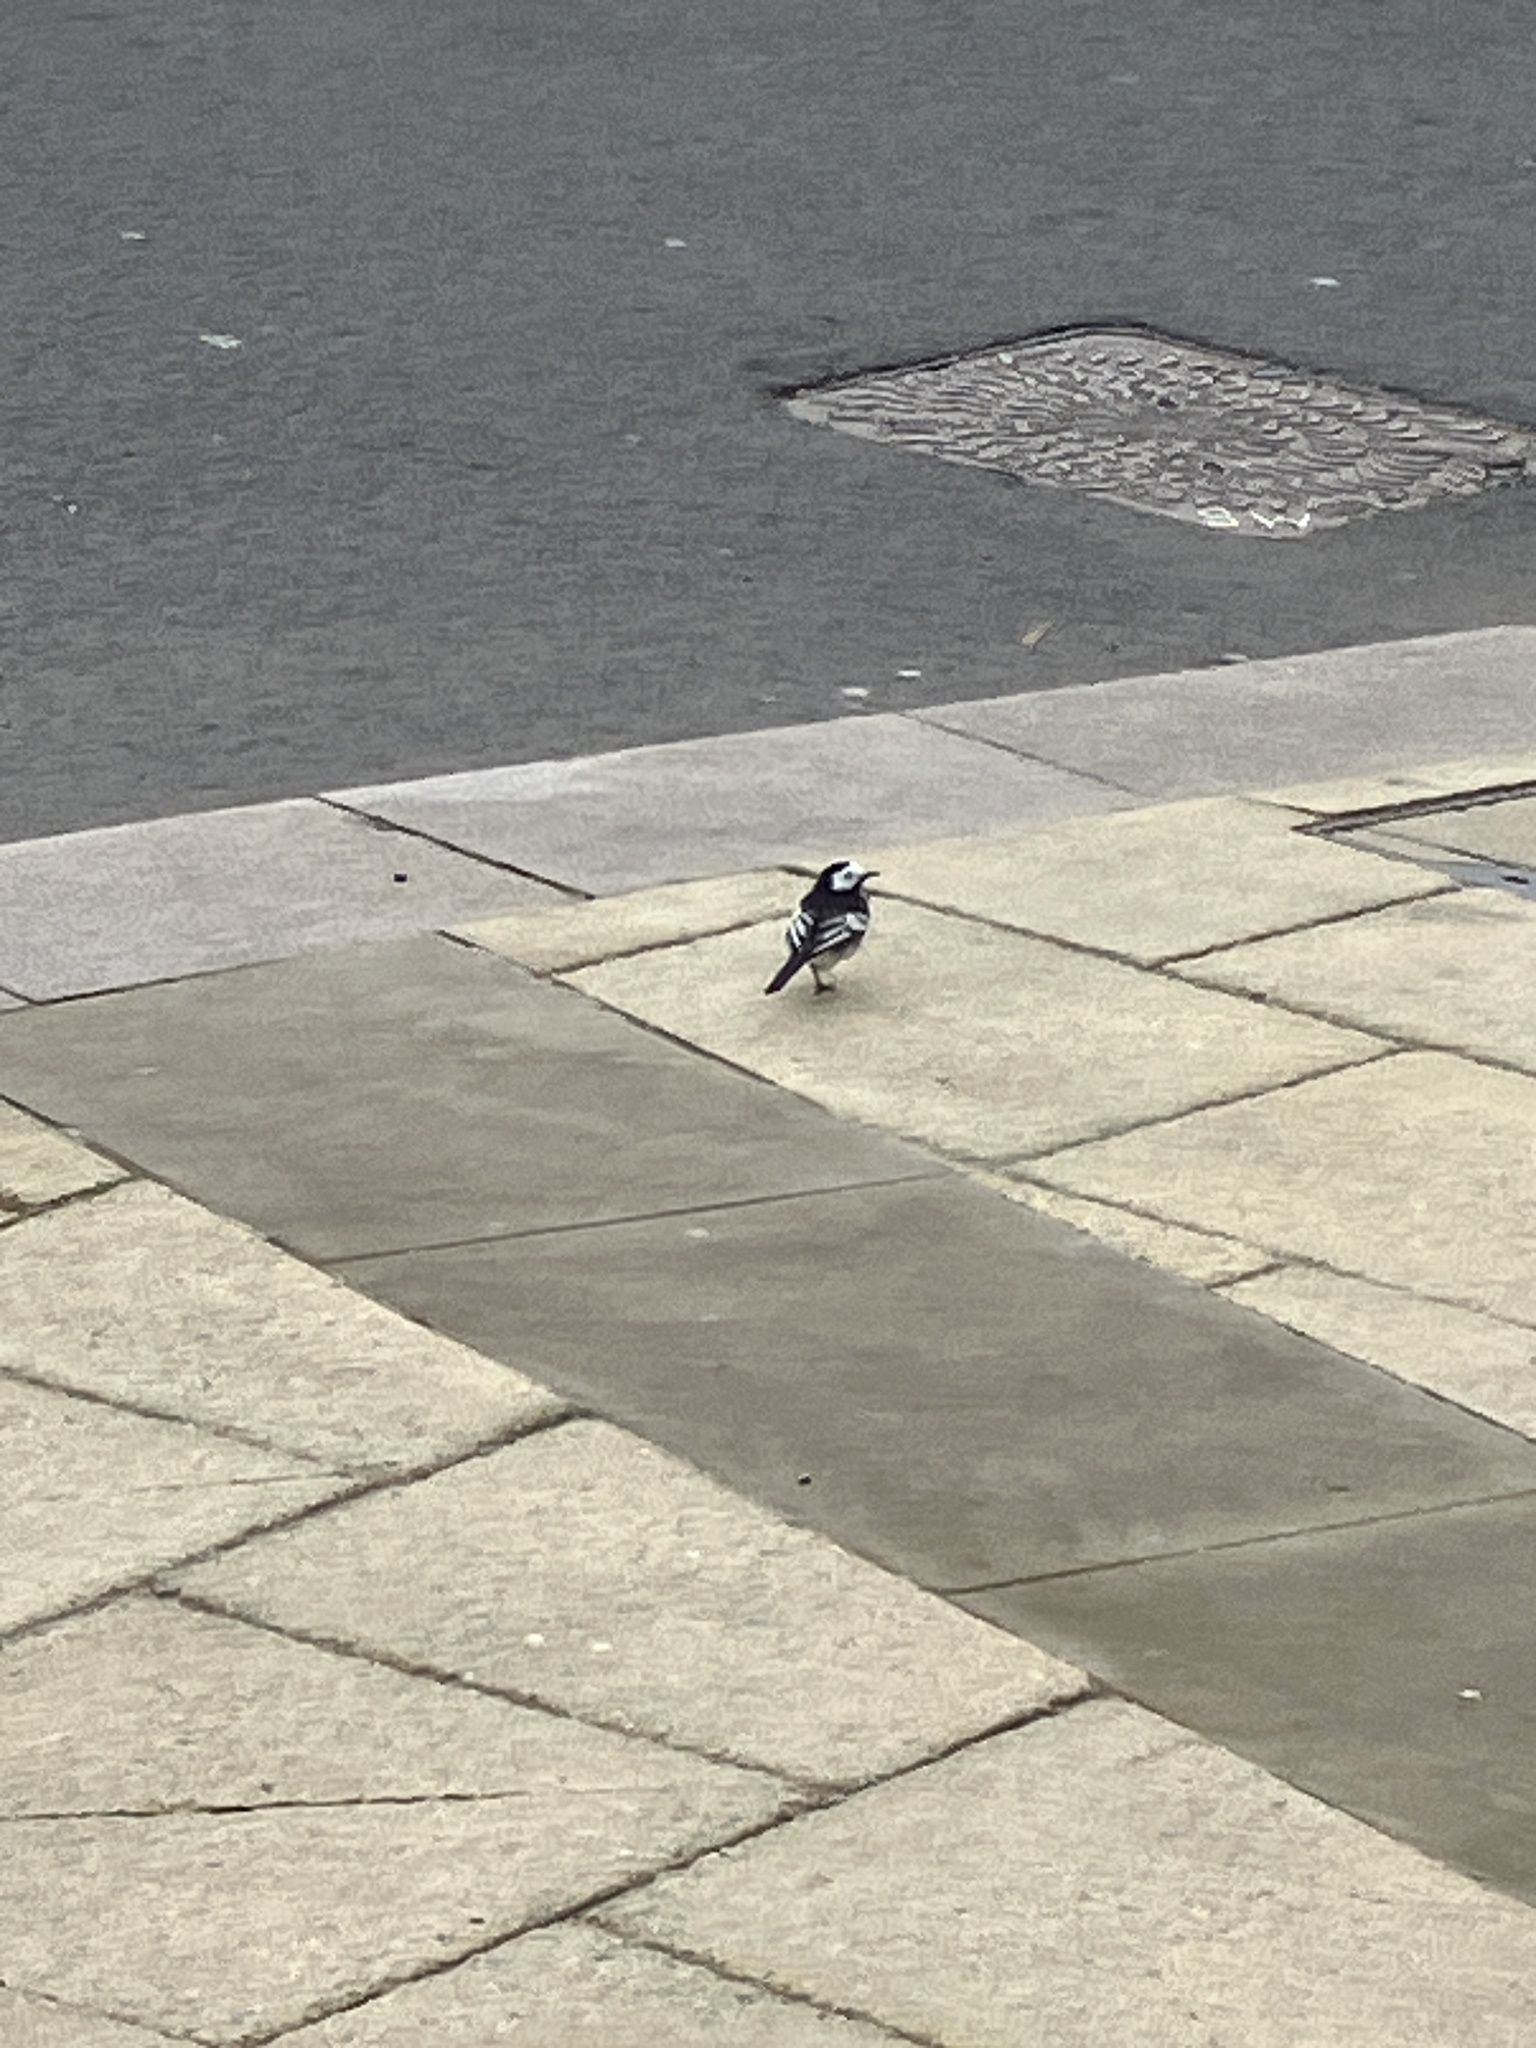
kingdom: Animalia
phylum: Chordata
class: Aves
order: Passeriformes
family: Motacillidae
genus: Motacilla
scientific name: Motacilla alba
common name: White wagtail
